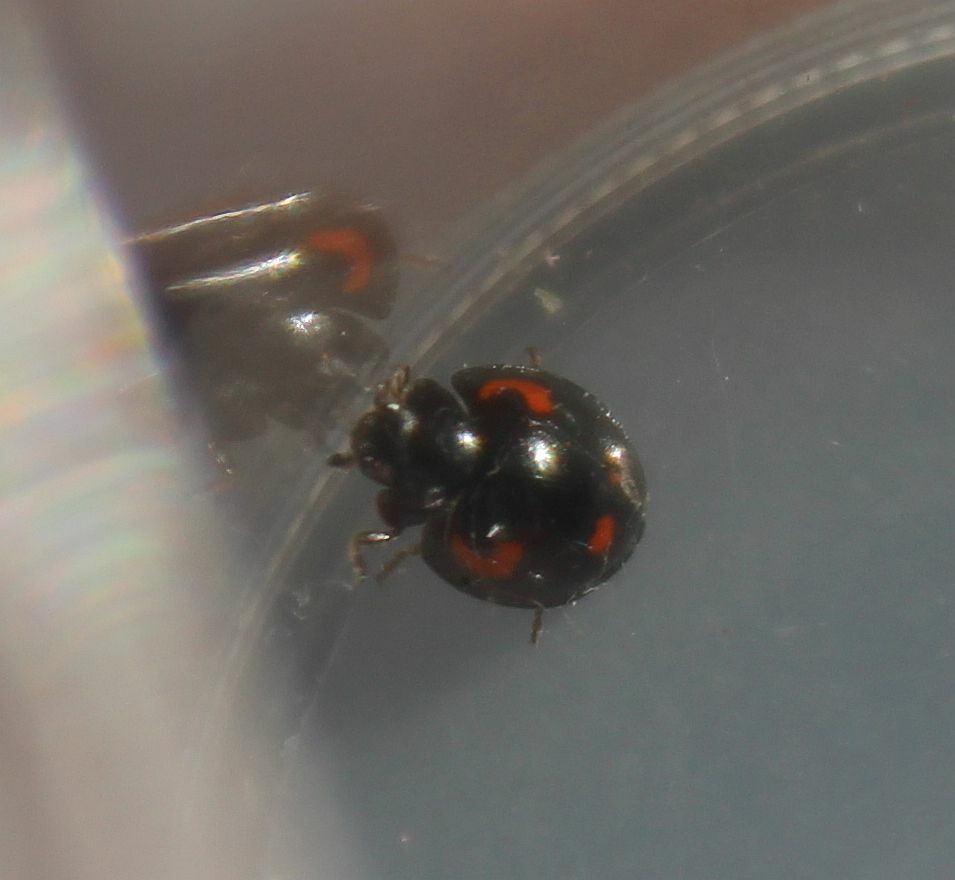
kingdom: Animalia
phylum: Arthropoda
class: Insecta
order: Coleoptera
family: Coccinellidae
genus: Brumus
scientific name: Brumus quadripustulatus
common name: Ladybird beetle
